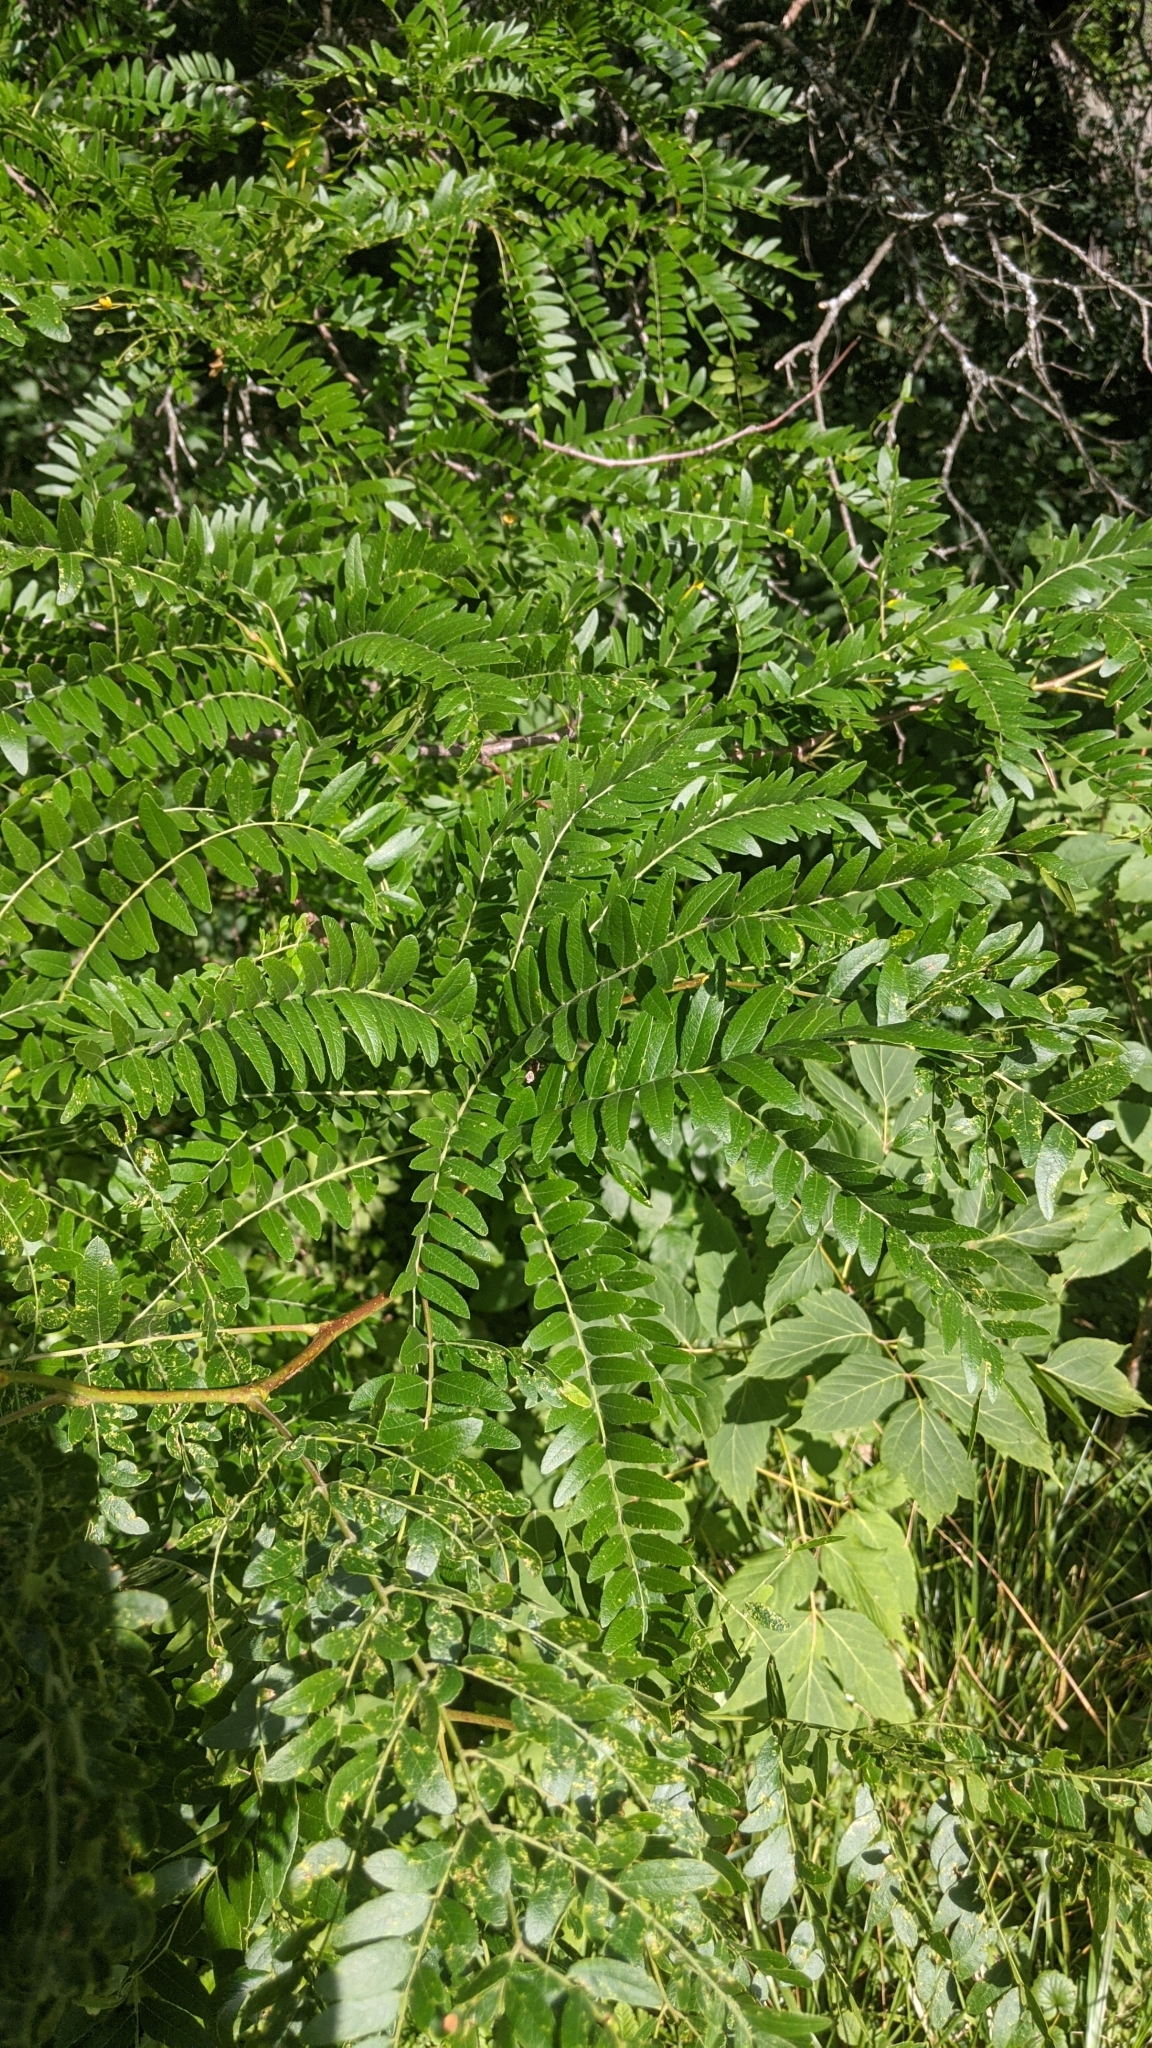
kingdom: Plantae
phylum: Tracheophyta
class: Magnoliopsida
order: Fabales
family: Fabaceae
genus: Gleditsia
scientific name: Gleditsia triacanthos
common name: Common honeylocust
